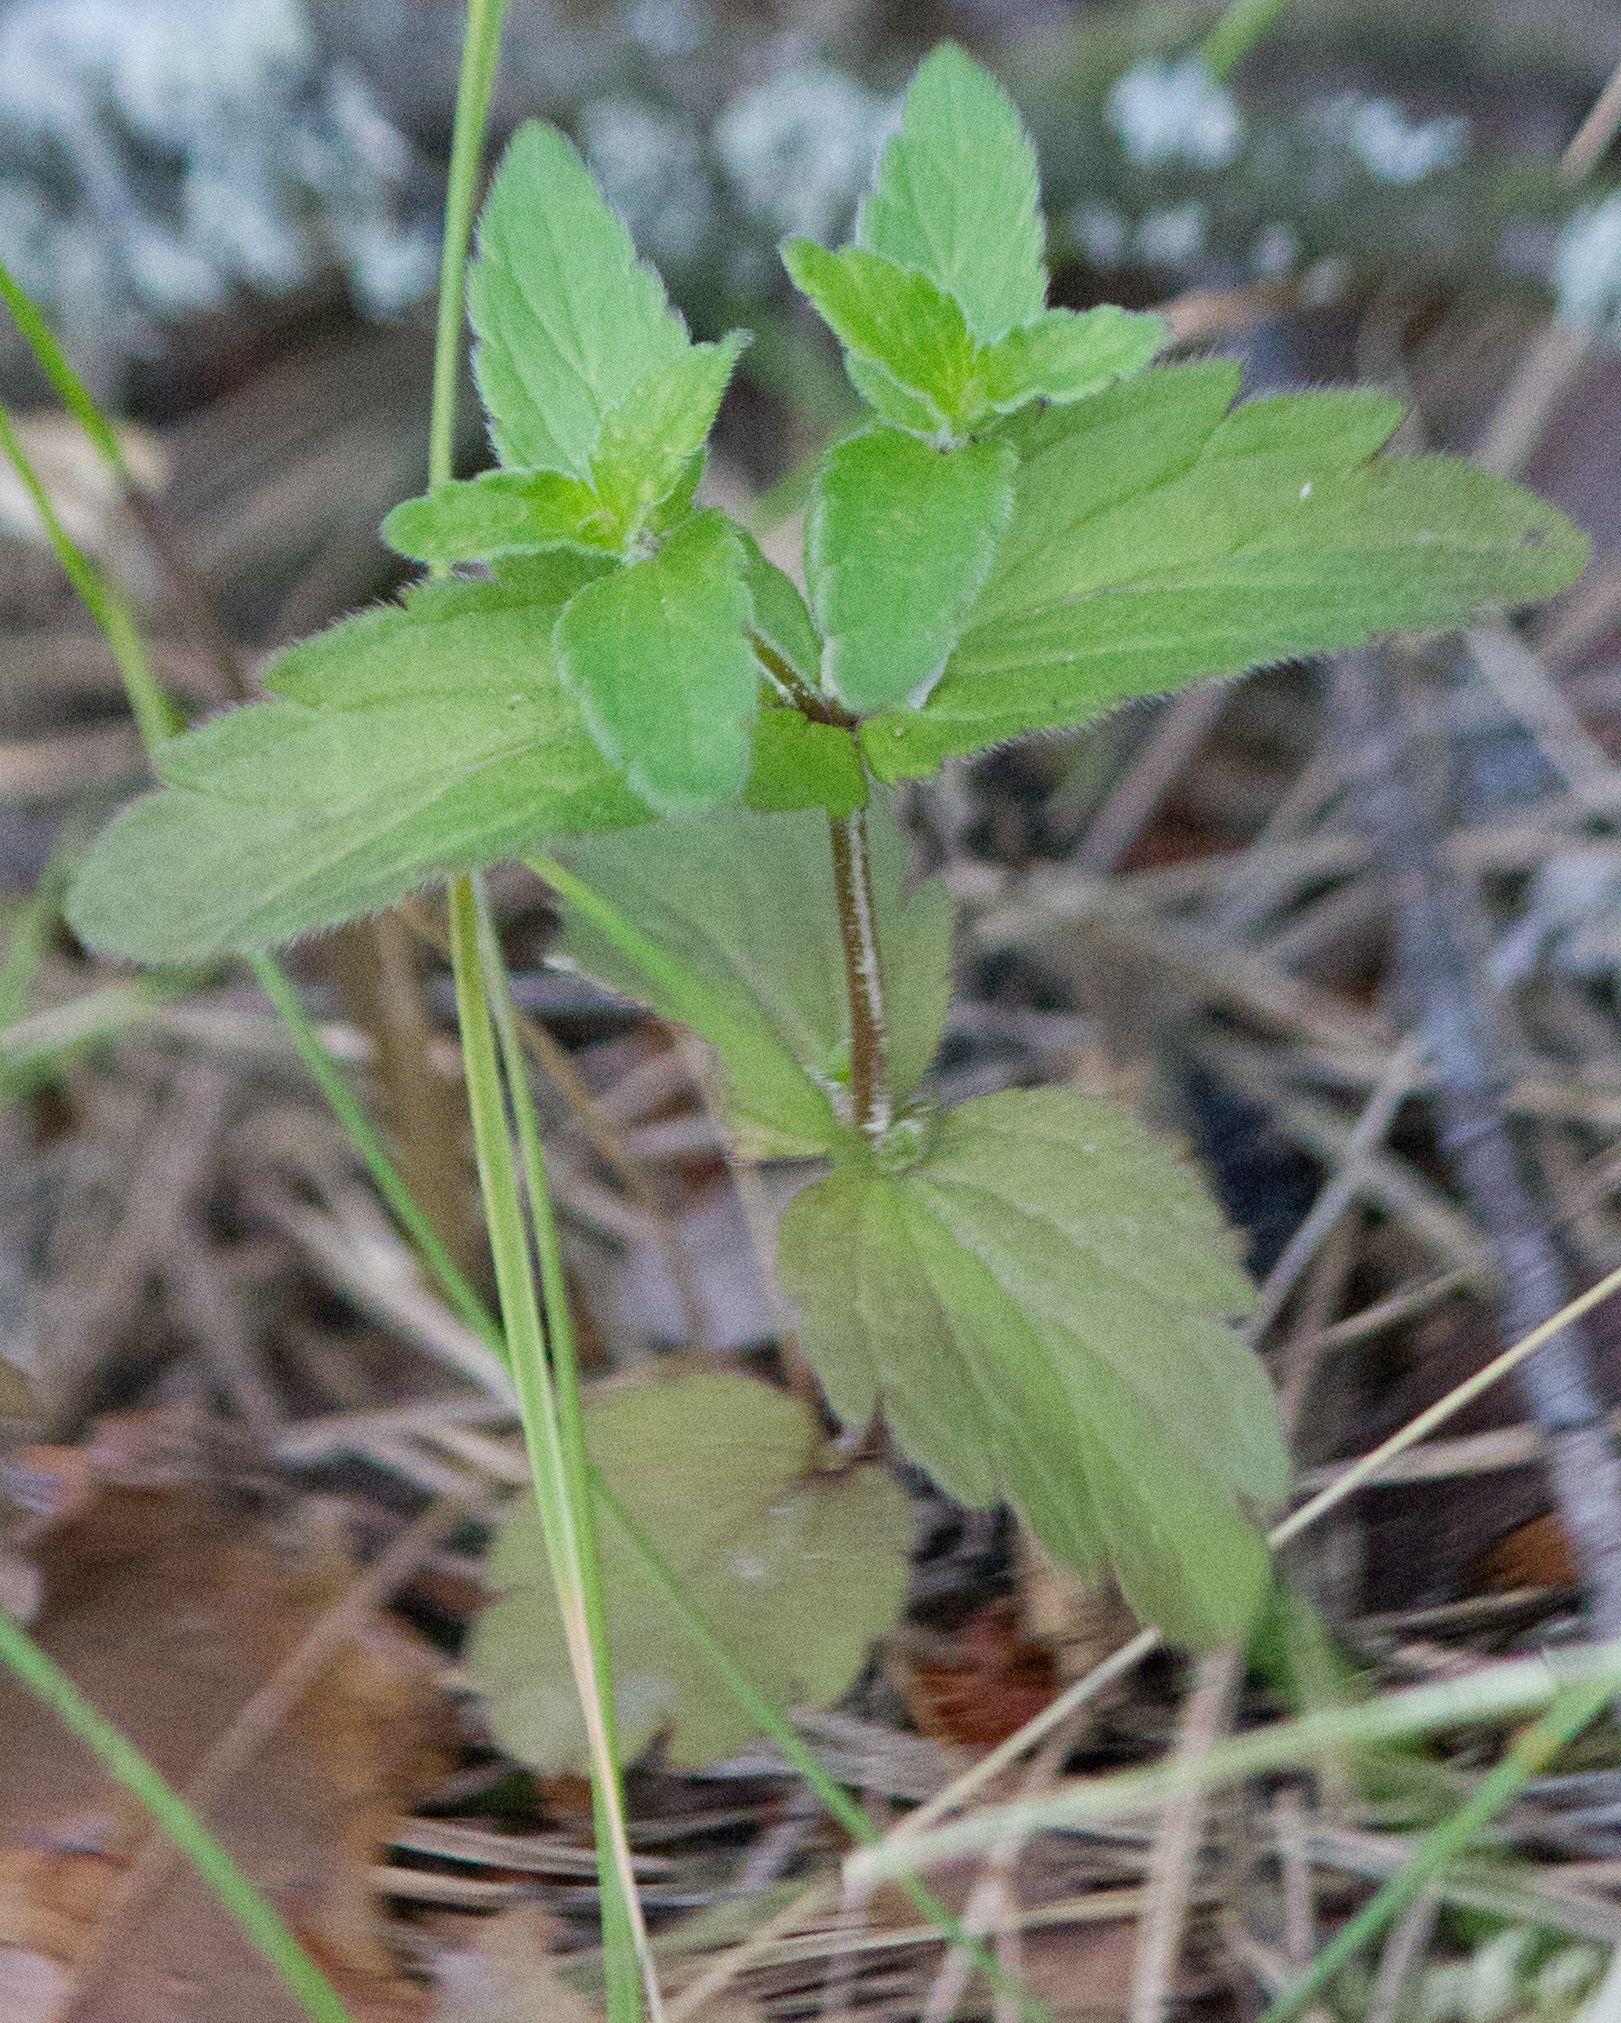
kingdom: Plantae
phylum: Tracheophyta
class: Magnoliopsida
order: Lamiales
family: Plantaginaceae
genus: Veronica
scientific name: Veronica chamaedrys
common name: Germander speedwell
